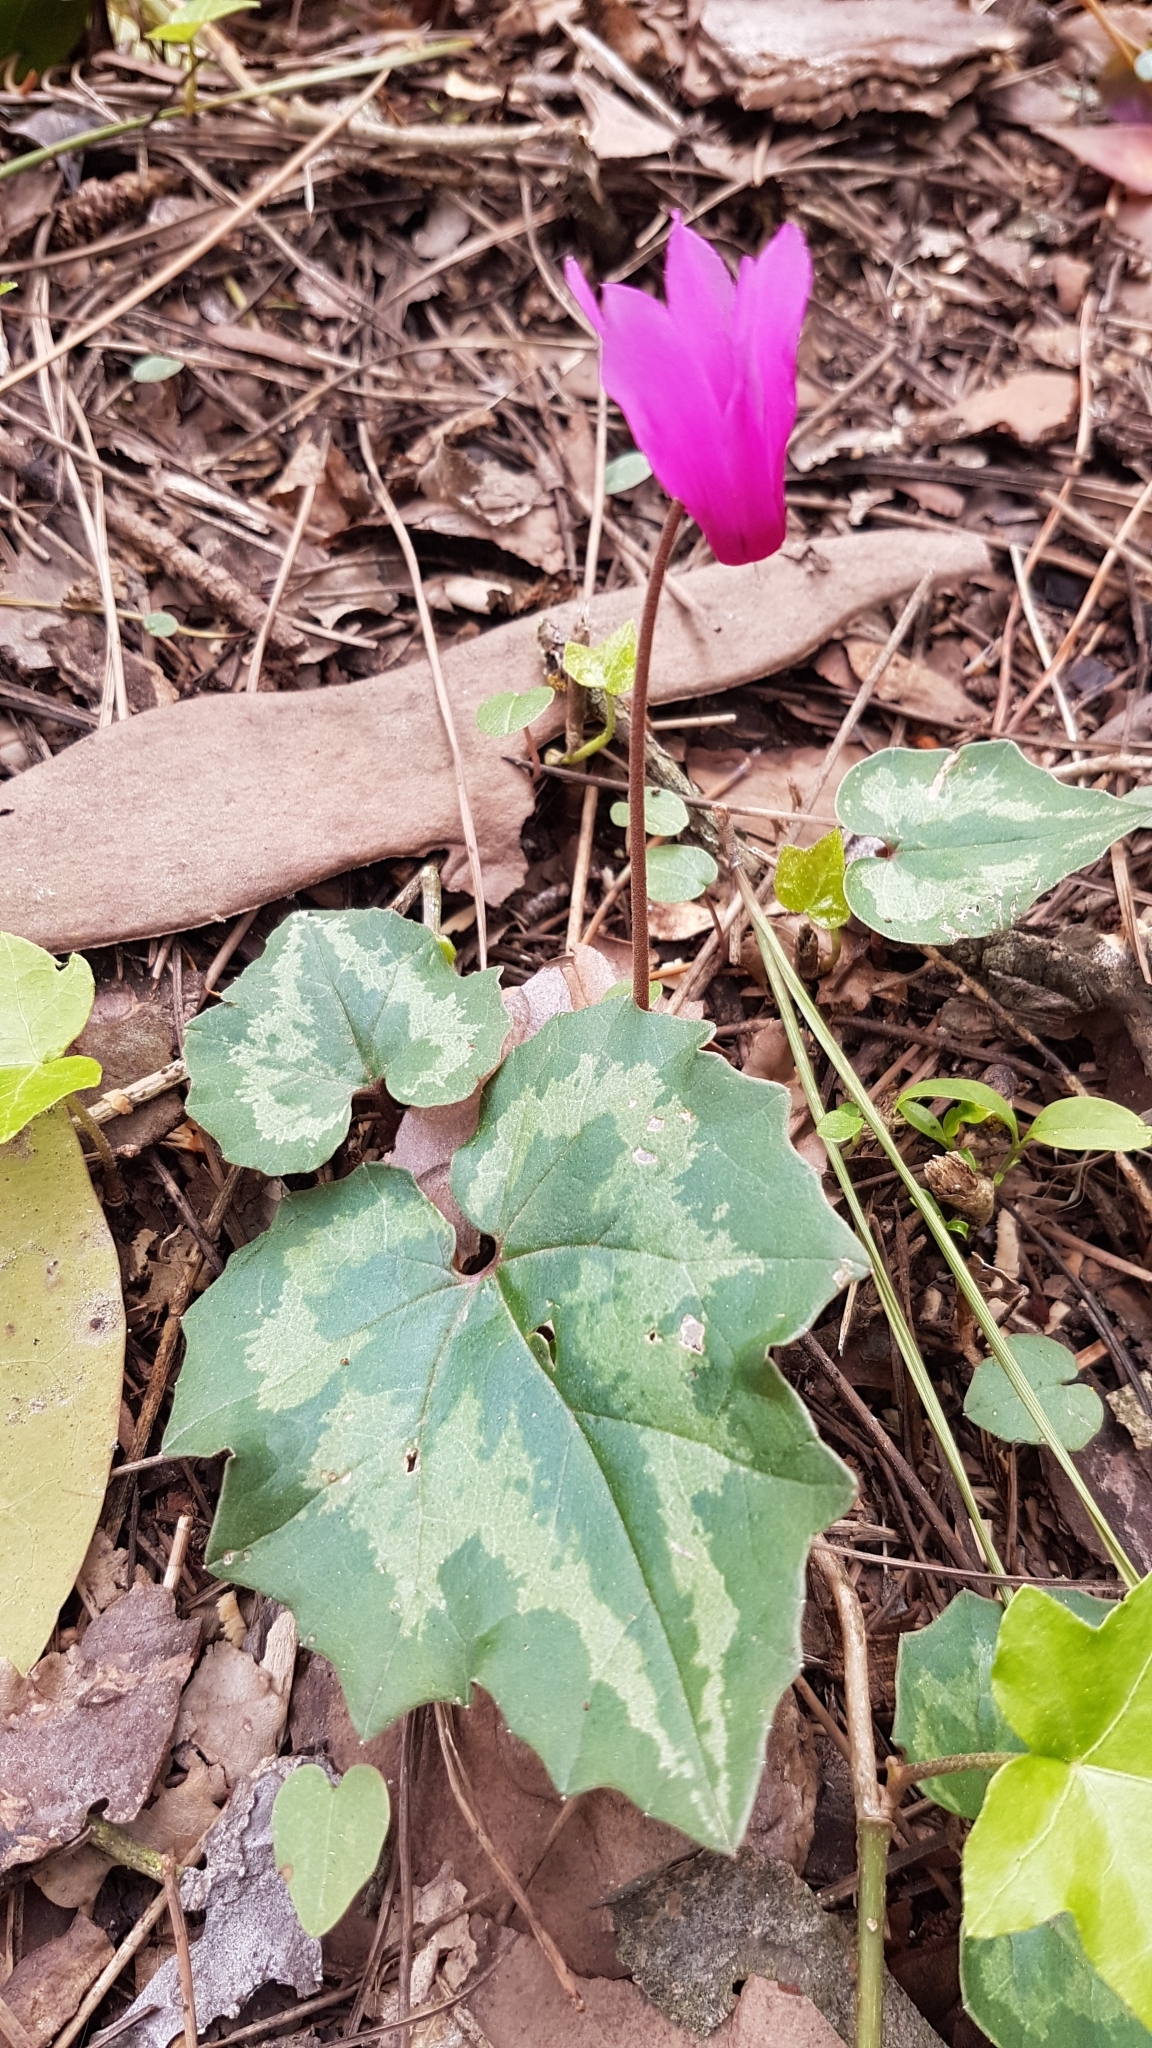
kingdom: Plantae
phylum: Tracheophyta
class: Magnoliopsida
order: Ericales
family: Primulaceae
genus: Cyclamen
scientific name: Cyclamen repandum
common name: Spring sowbread
